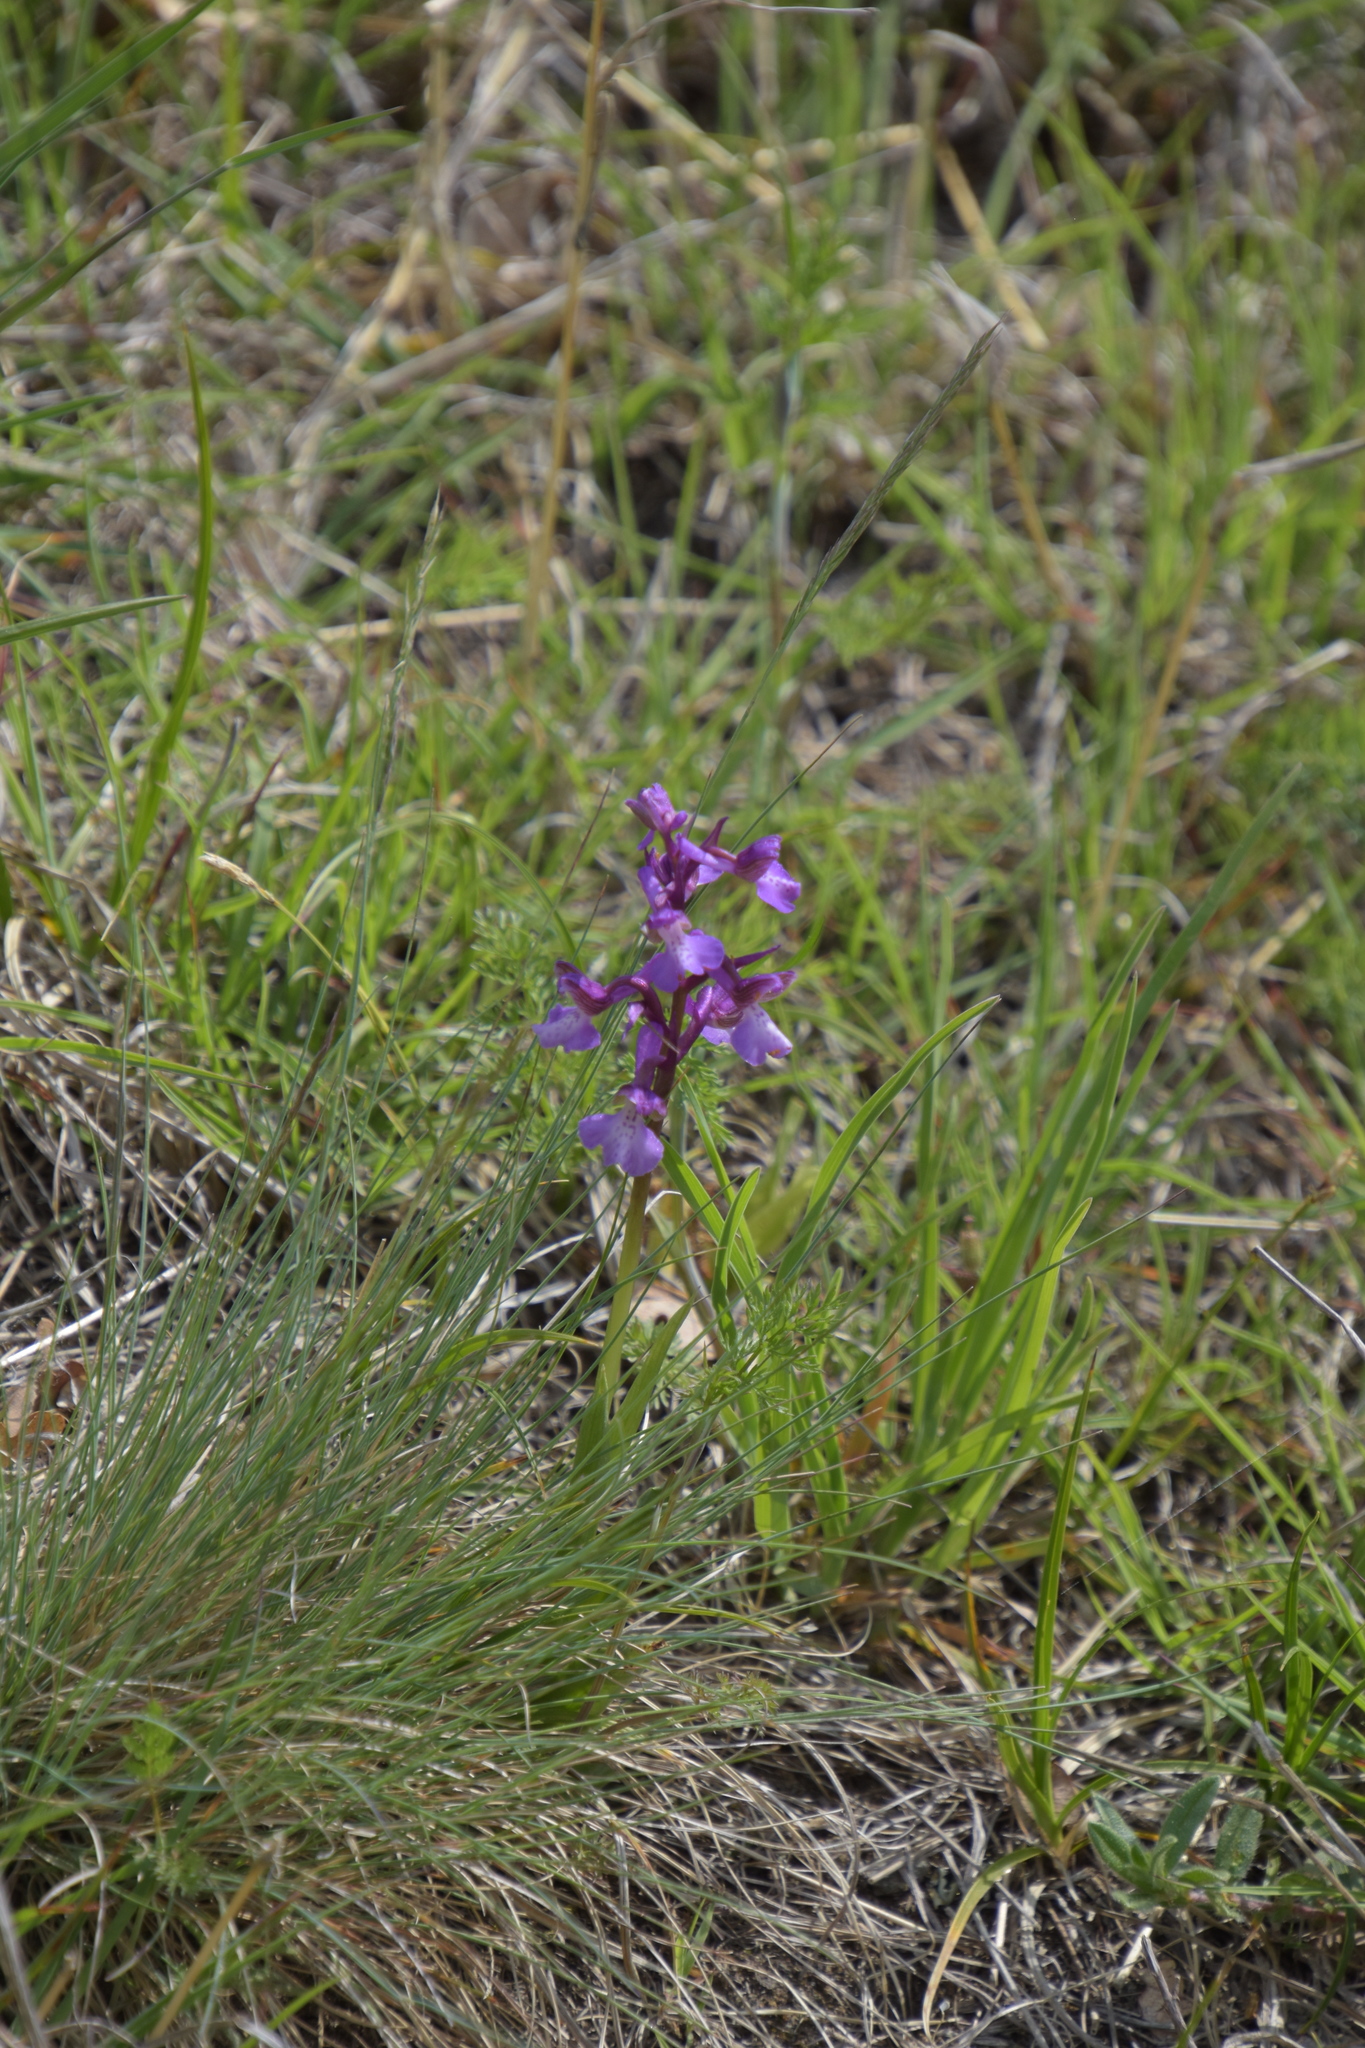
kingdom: Plantae
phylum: Tracheophyta
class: Liliopsida
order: Asparagales
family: Orchidaceae
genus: Anacamptis
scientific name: Anacamptis morio
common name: Green-winged orchid
